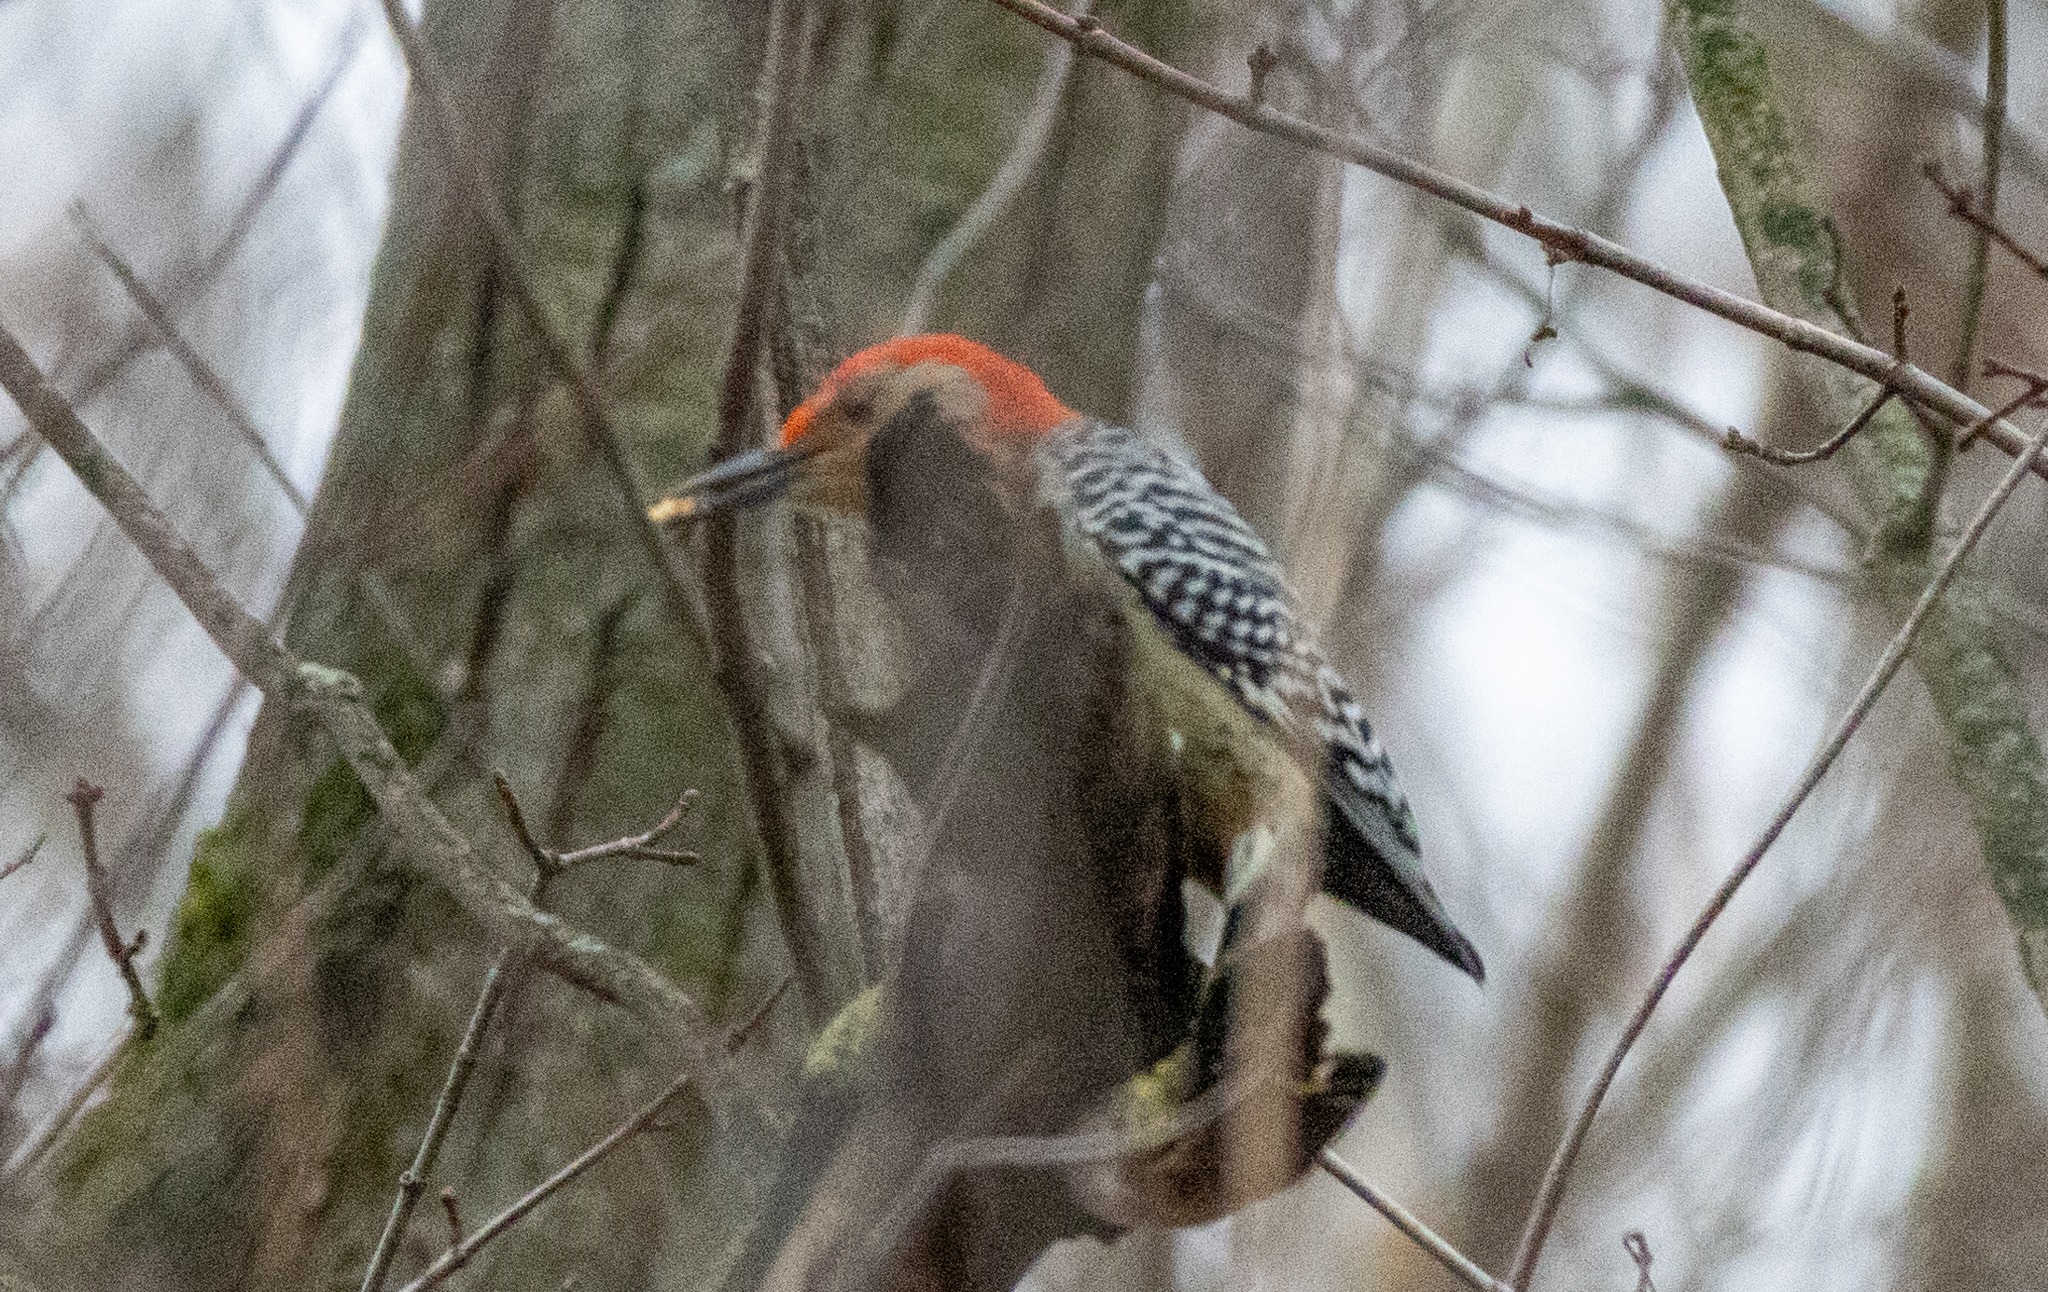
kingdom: Animalia
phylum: Chordata
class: Aves
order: Piciformes
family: Picidae
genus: Melanerpes
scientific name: Melanerpes carolinus
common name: Red-bellied woodpecker
